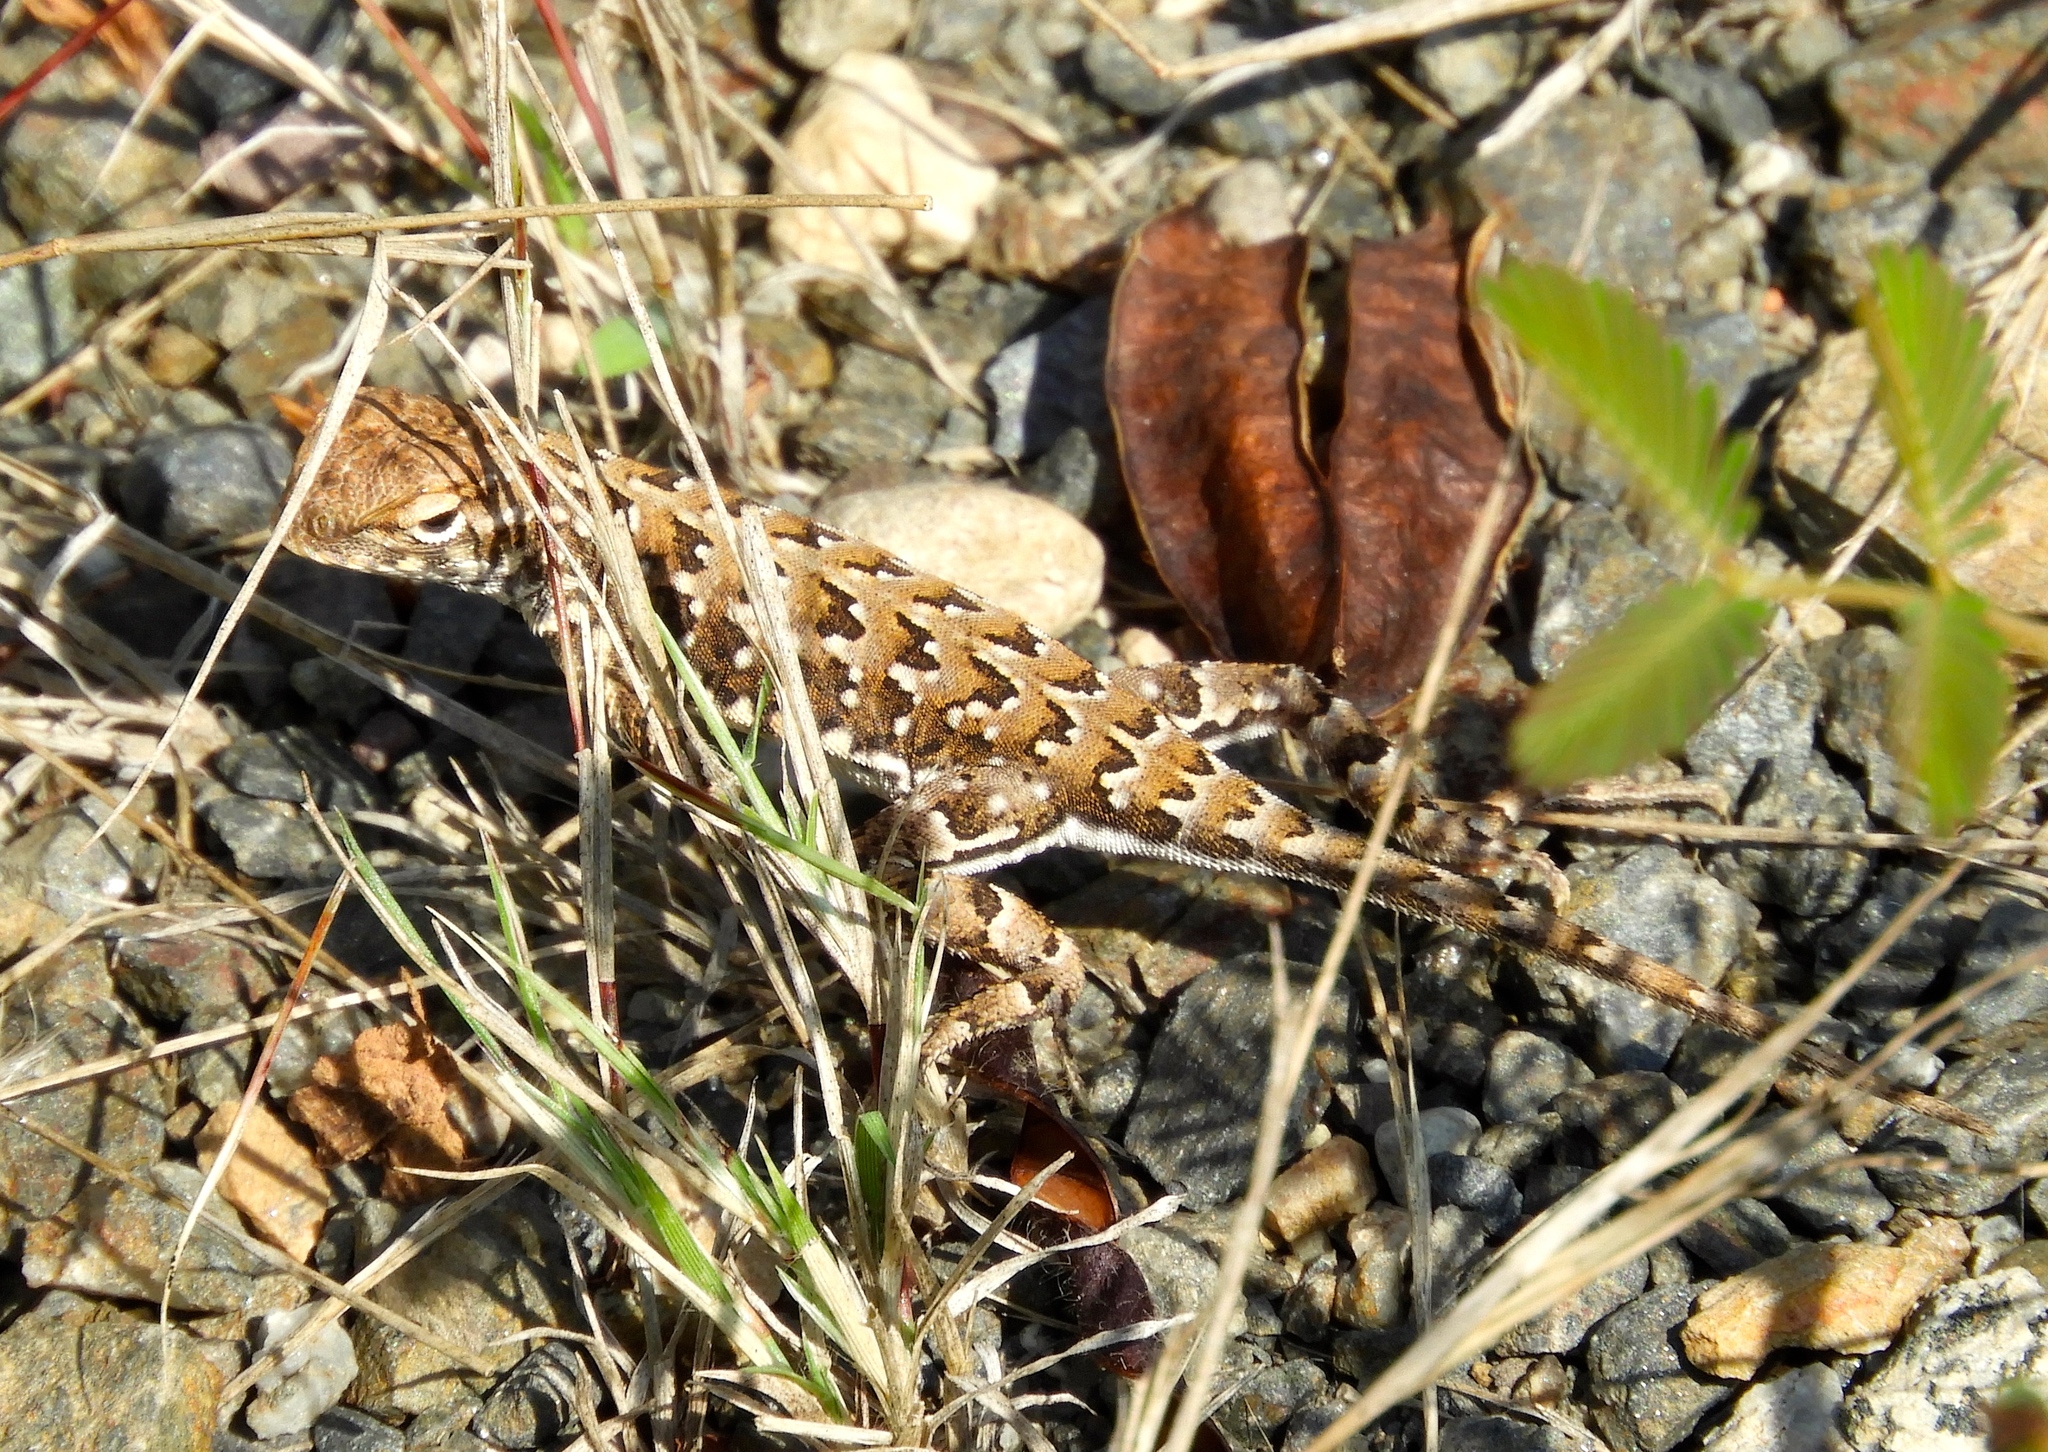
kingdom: Animalia
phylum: Chordata
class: Squamata
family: Phrynosomatidae
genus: Holbrookia
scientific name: Holbrookia elegans
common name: Elegant earless lizard
